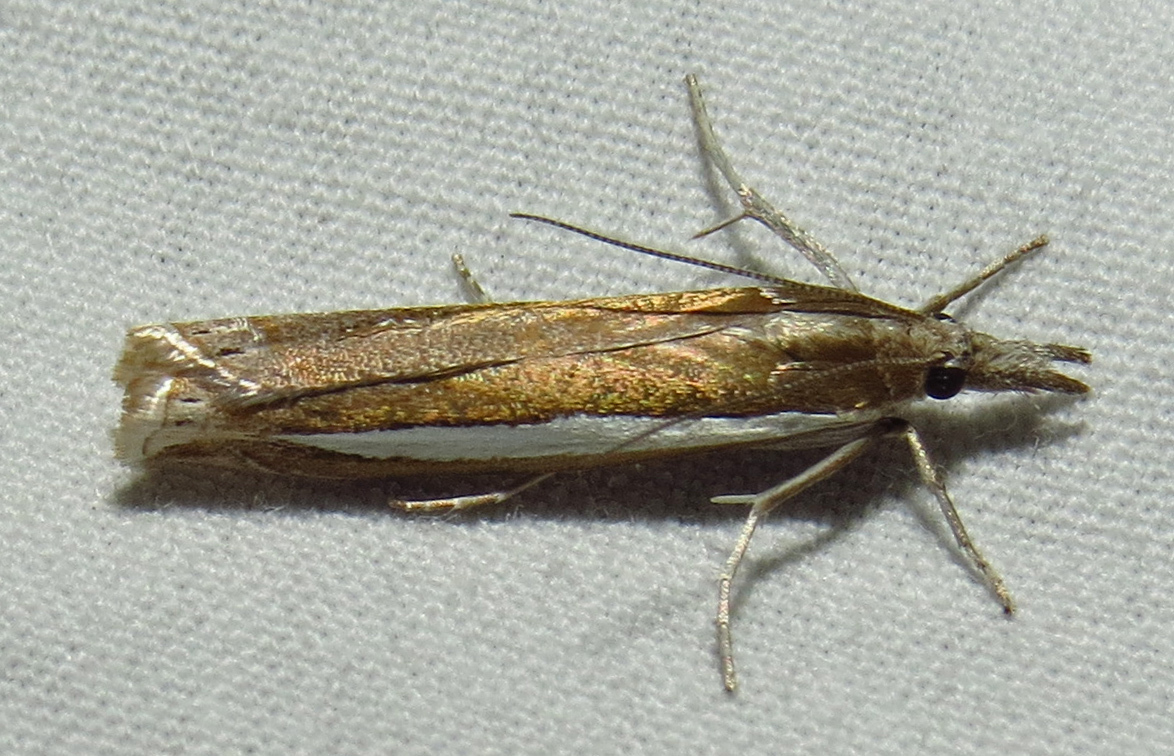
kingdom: Animalia
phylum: Arthropoda
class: Insecta
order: Lepidoptera
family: Crambidae
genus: Crambus
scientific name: Crambus quinquareatus
